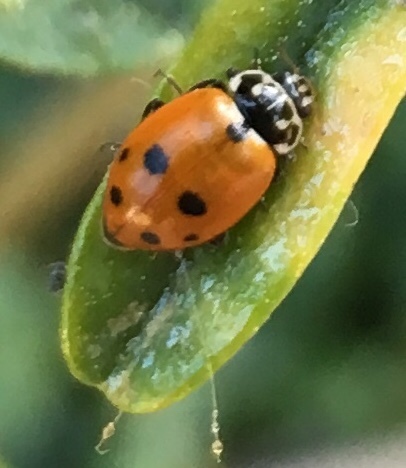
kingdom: Animalia
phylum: Arthropoda
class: Insecta
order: Coleoptera
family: Coccinellidae
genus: Hippodamia
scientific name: Hippodamia variegata
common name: Ladybird beetle
